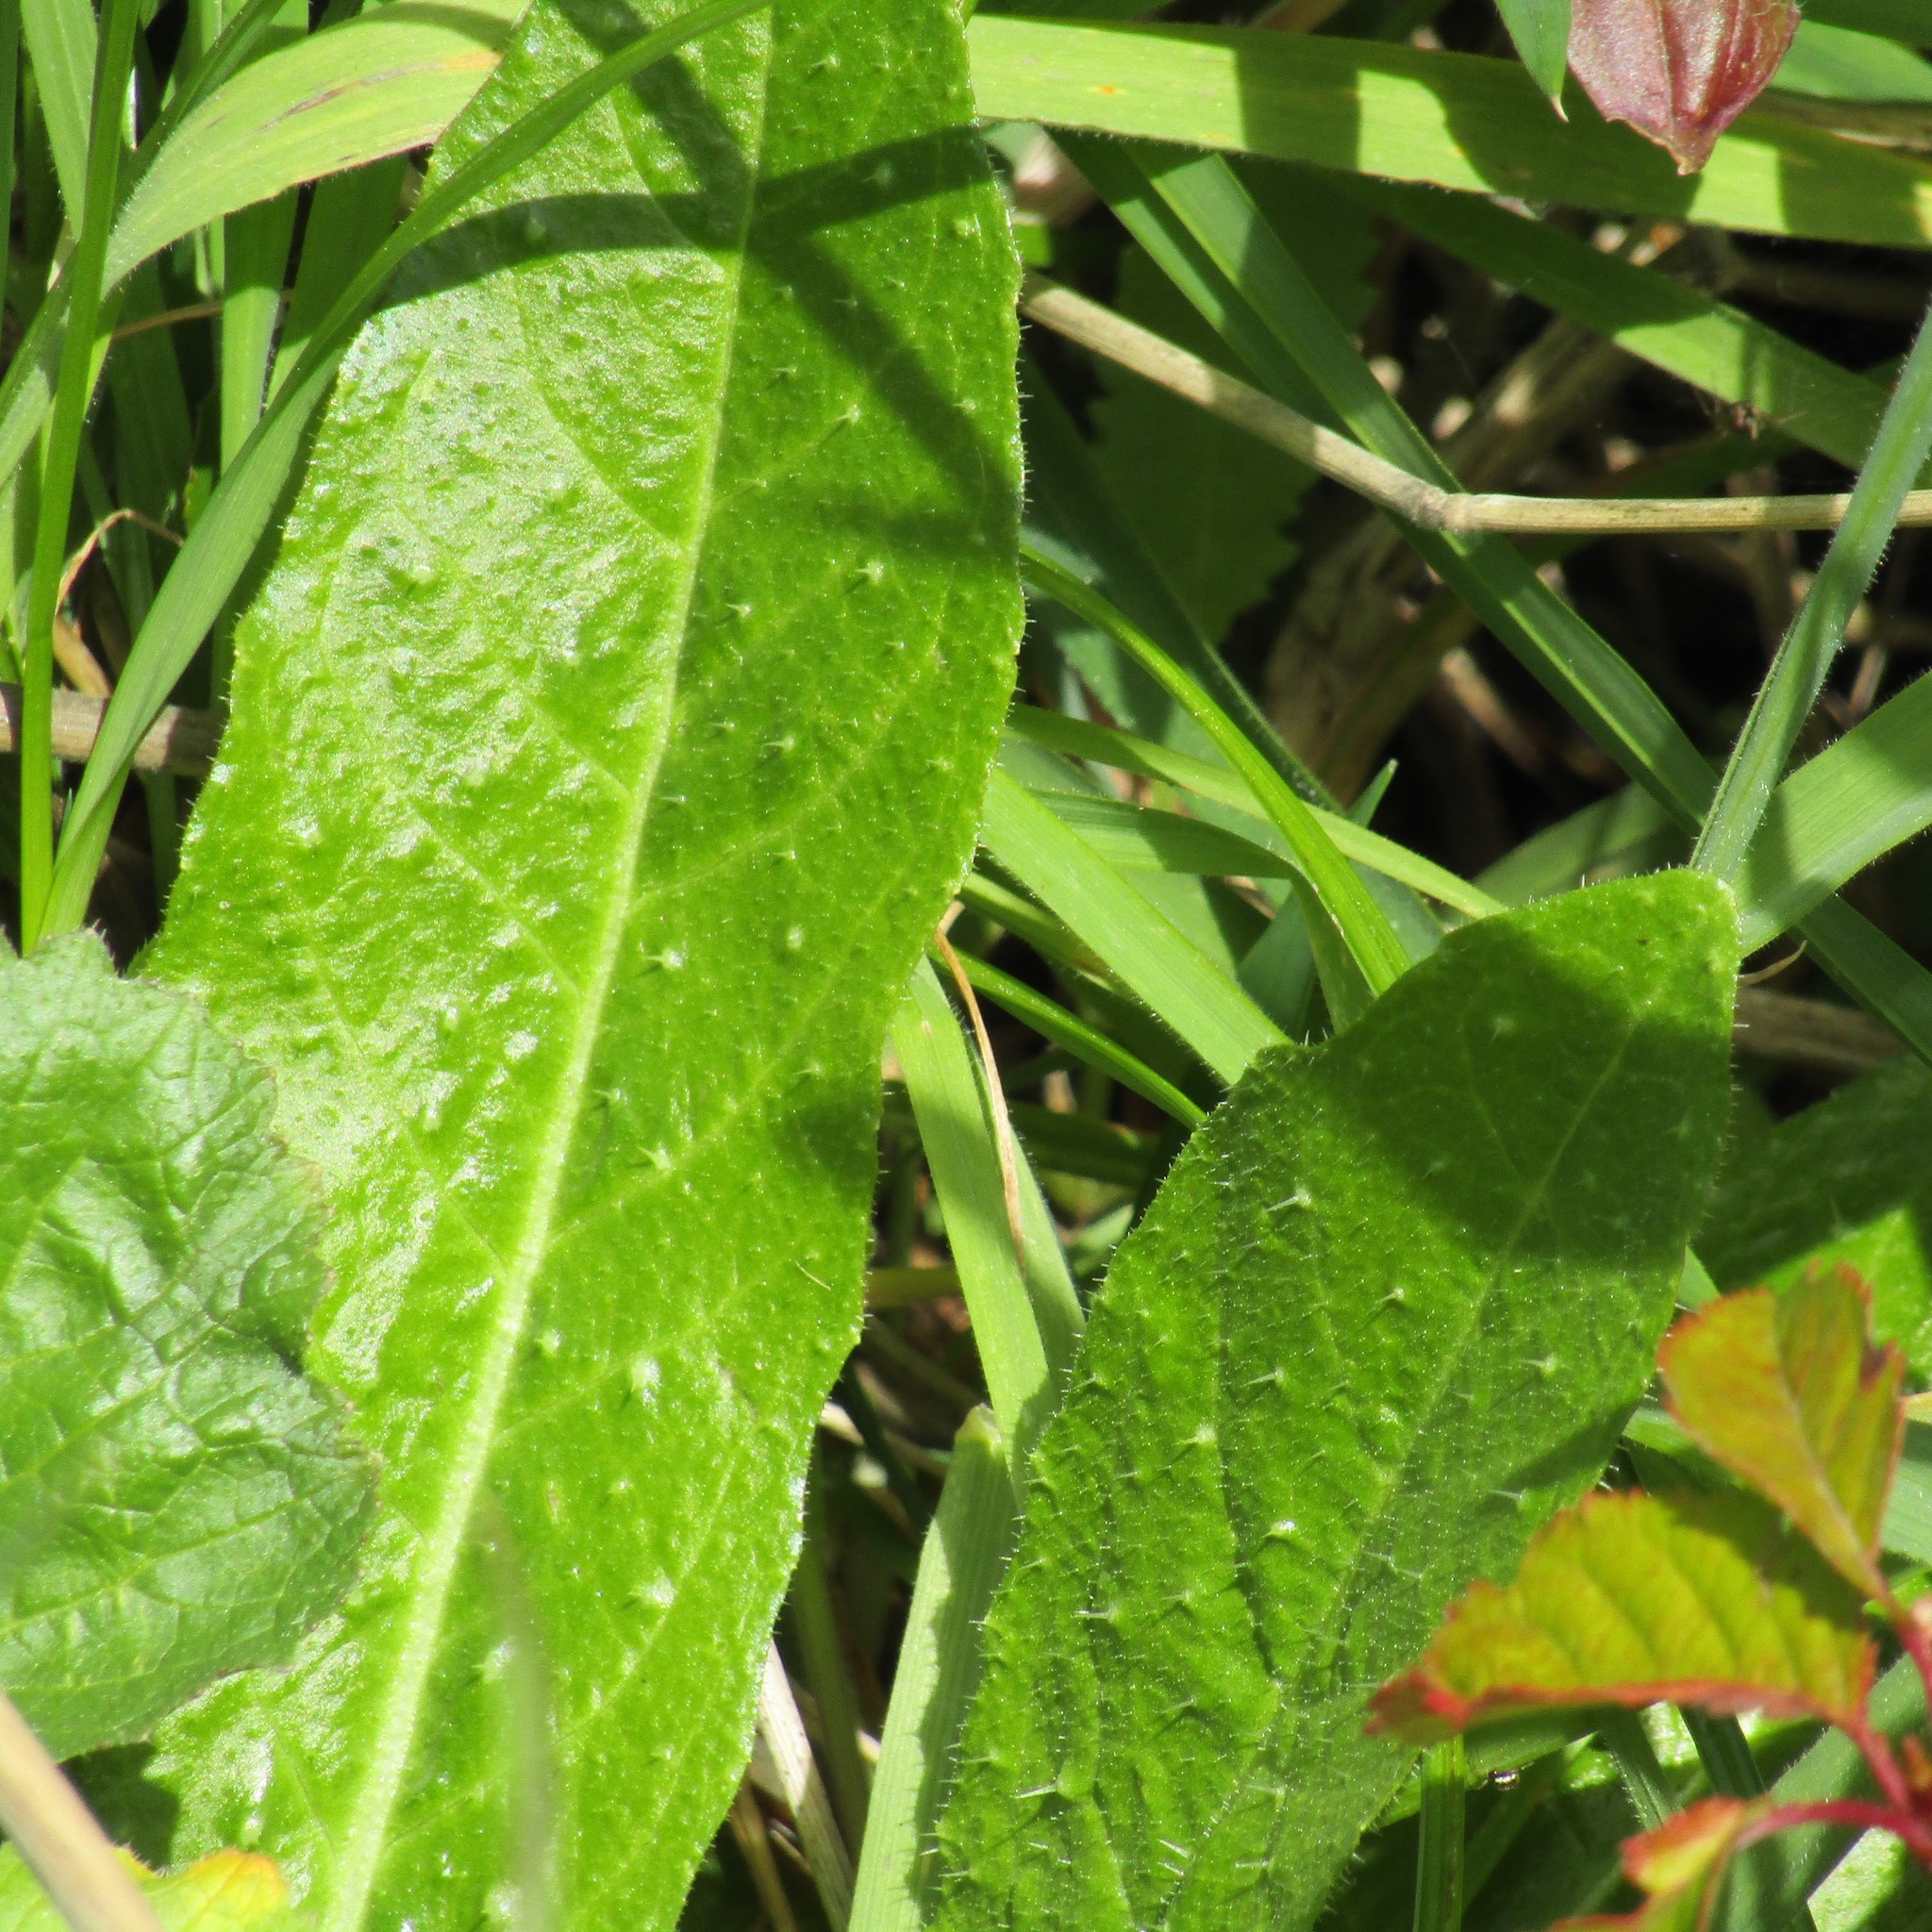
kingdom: Plantae
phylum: Tracheophyta
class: Magnoliopsida
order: Asterales
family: Asteraceae
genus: Helminthotheca
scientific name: Helminthotheca echioides
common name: Ox-tongue
